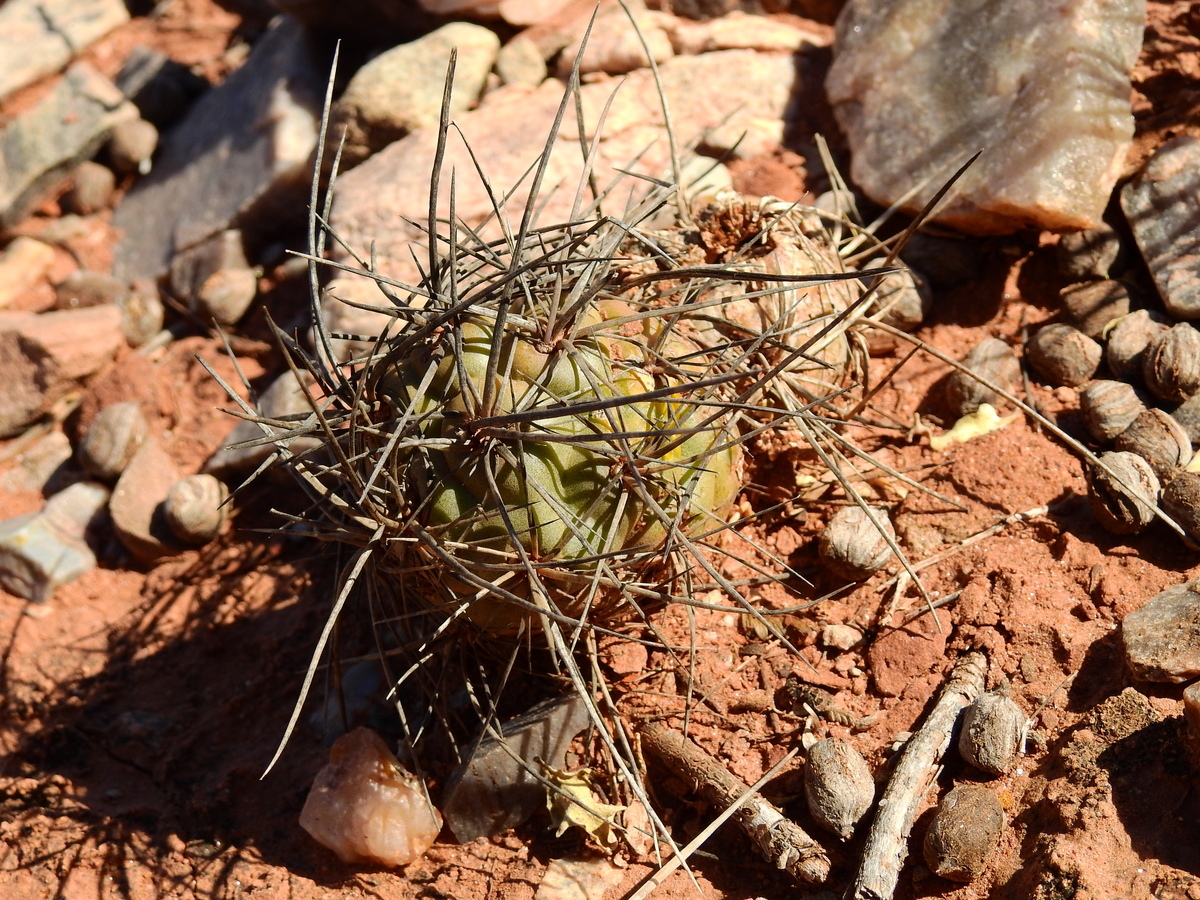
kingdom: Plantae
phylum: Tracheophyta
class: Magnoliopsida
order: Caryophyllales
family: Cactaceae
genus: Tephrocactus
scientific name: Tephrocactus alexanderi
